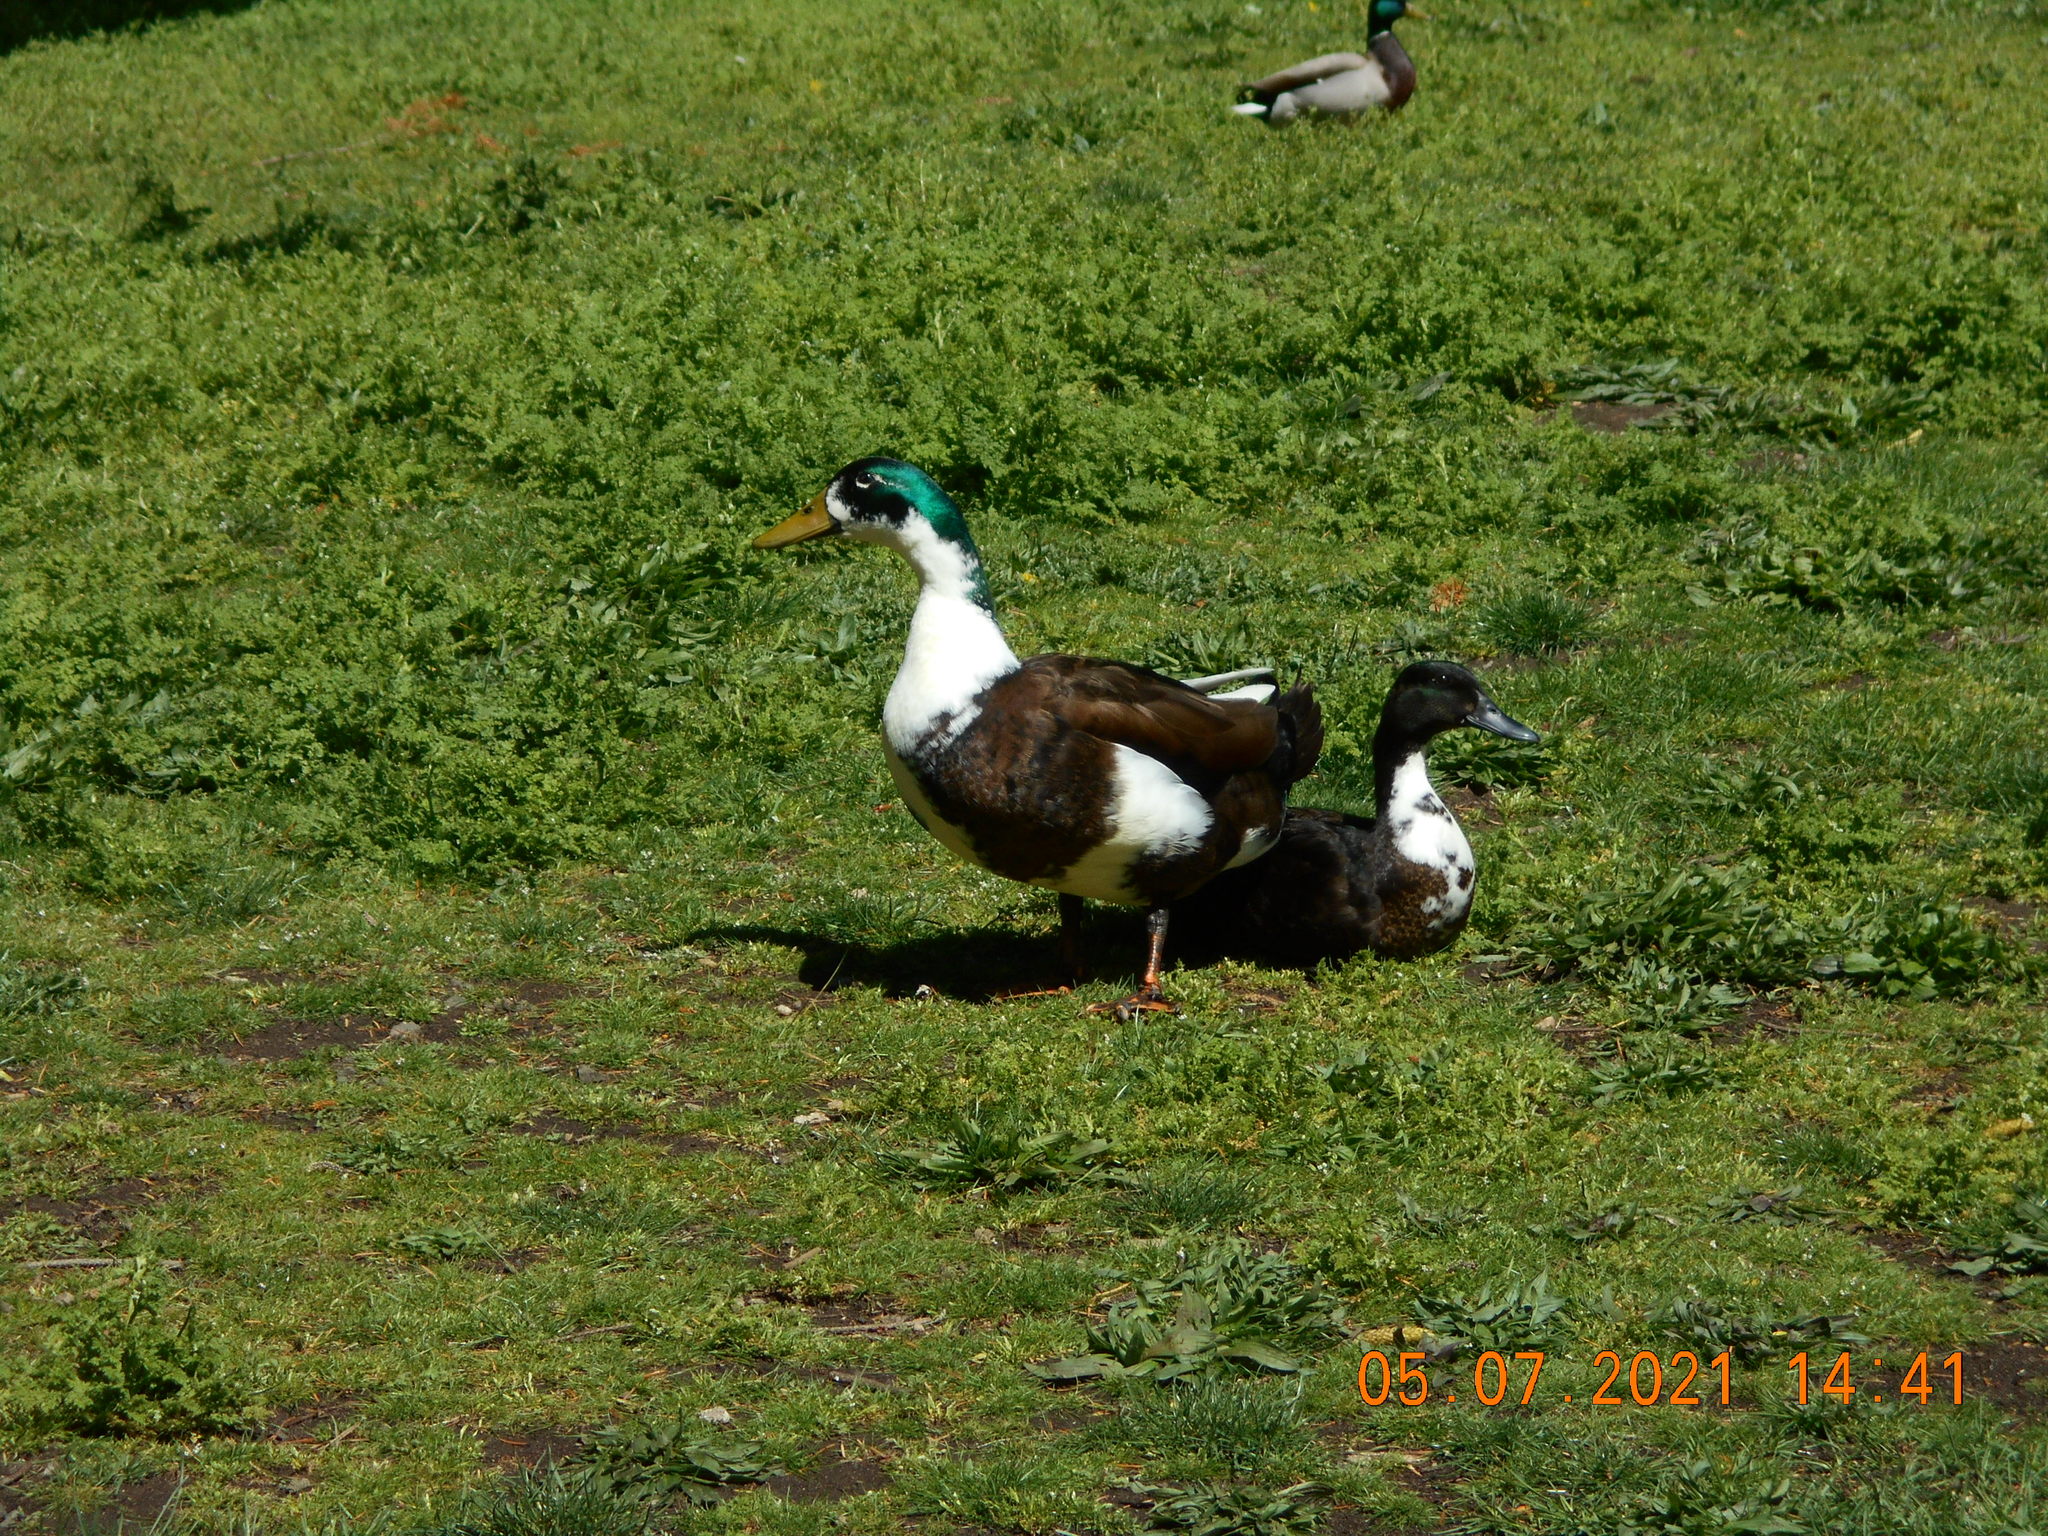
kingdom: Animalia
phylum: Chordata
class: Aves
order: Anseriformes
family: Anatidae
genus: Anas
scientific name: Anas platyrhynchos
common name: Mallard
